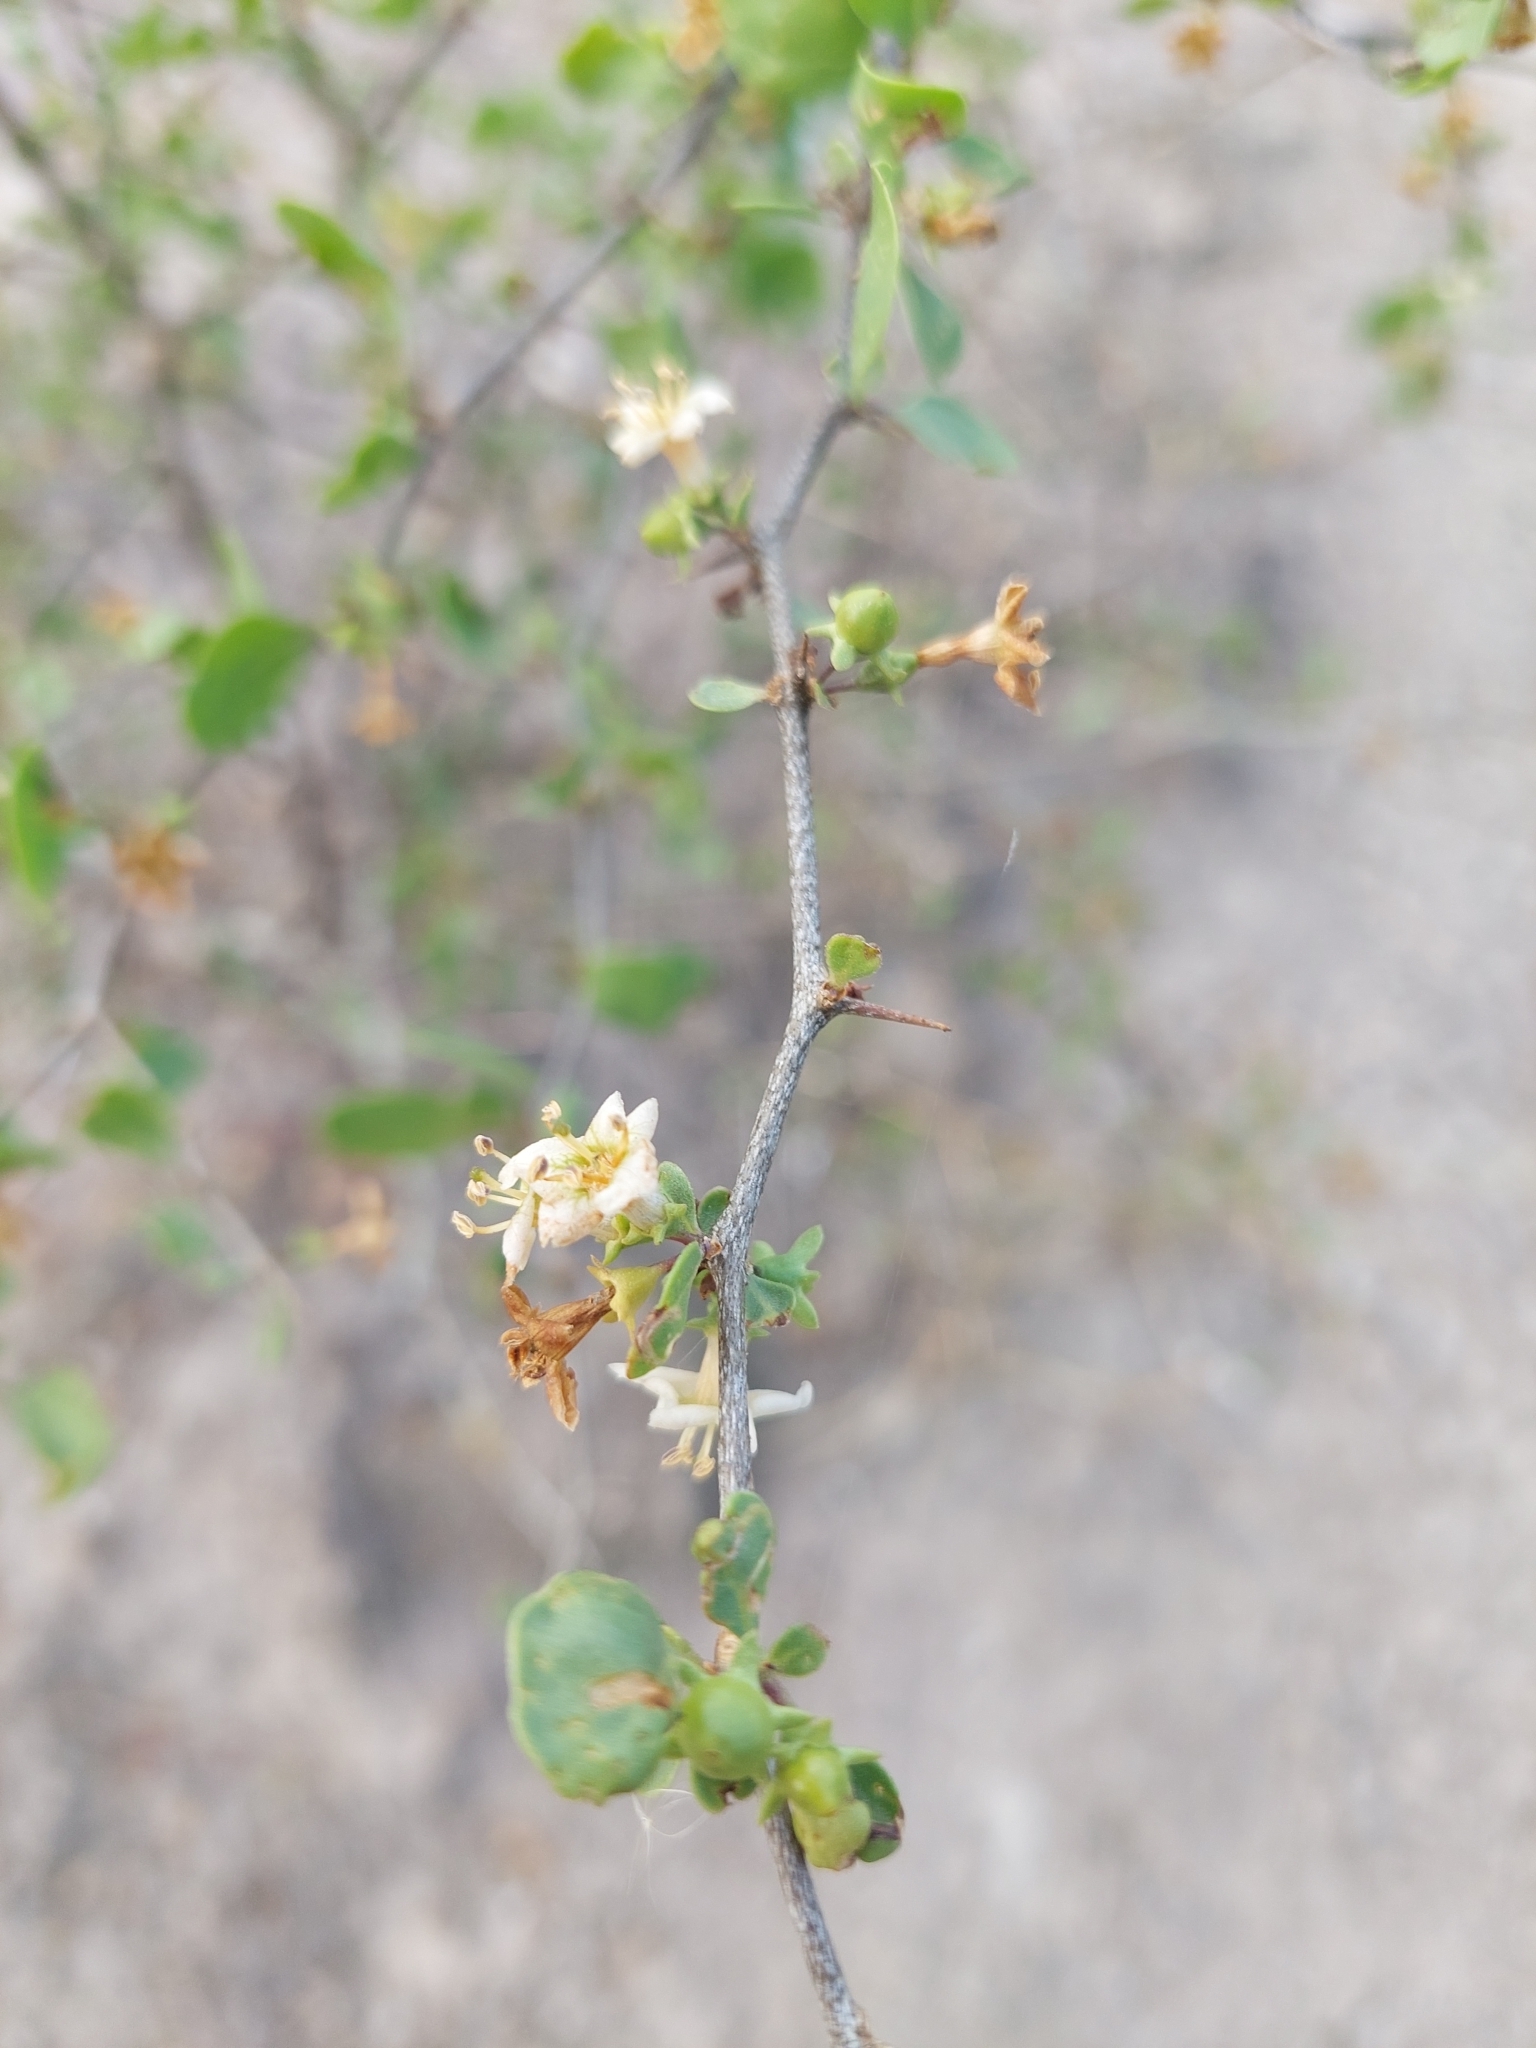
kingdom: Plantae
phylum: Tracheophyta
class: Magnoliopsida
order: Solanales
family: Solanaceae
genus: Lycium
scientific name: Lycium boerhaaviifolium
